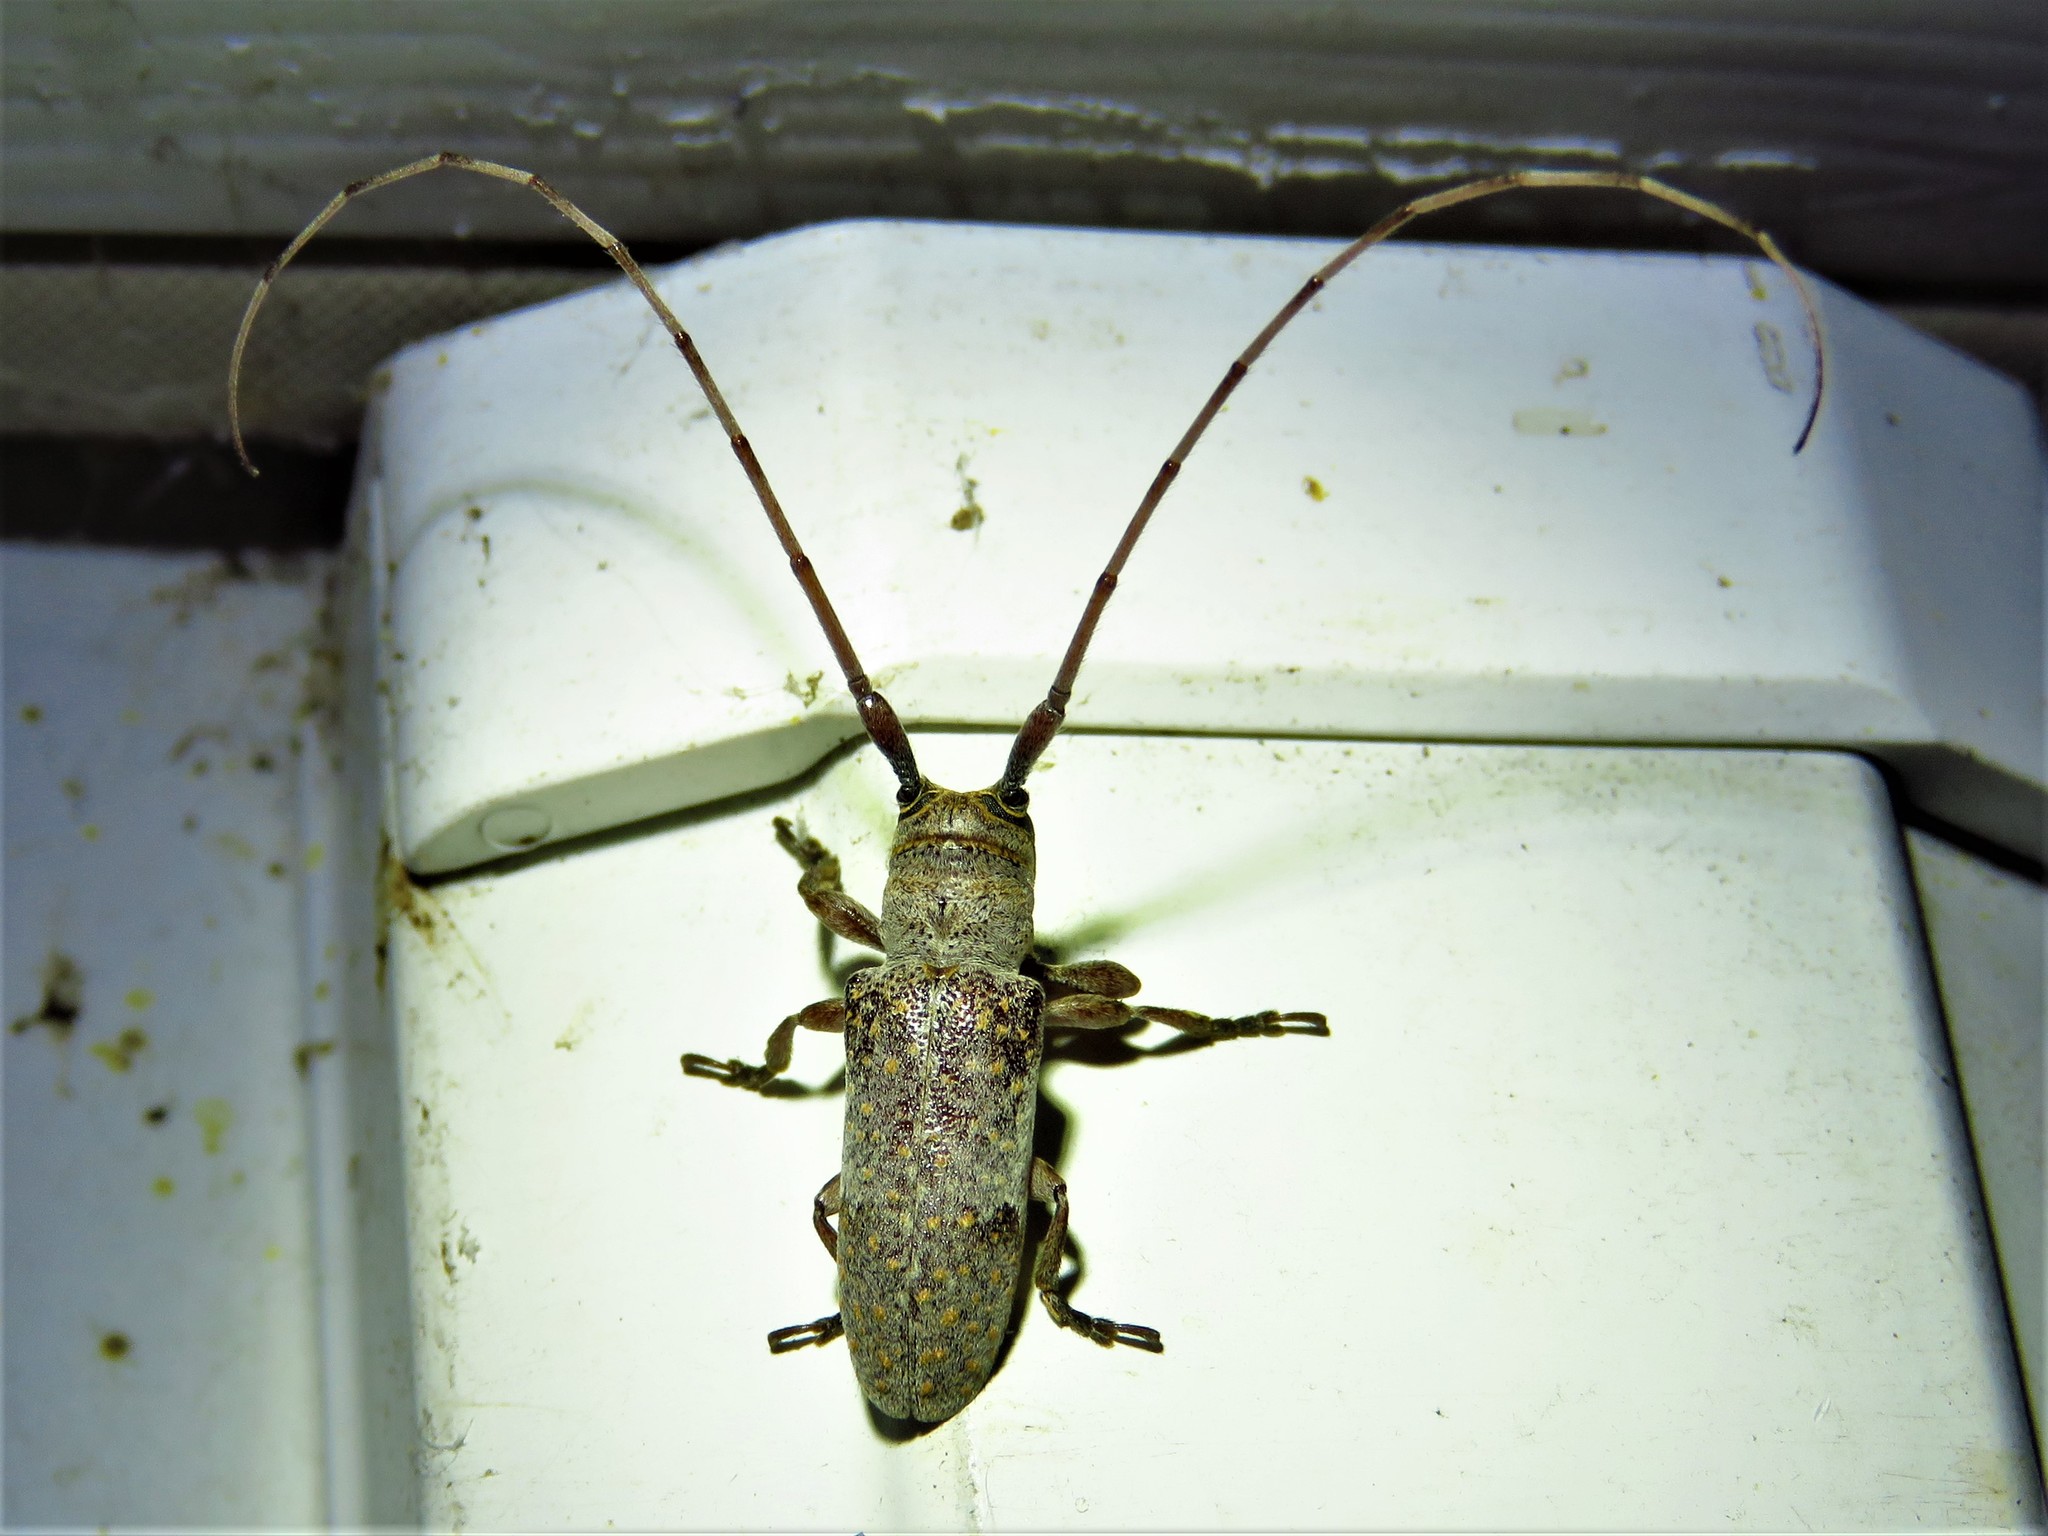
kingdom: Animalia
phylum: Arthropoda
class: Insecta
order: Coleoptera
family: Cerambycidae
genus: Oncideres
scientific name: Oncideres cingulata
